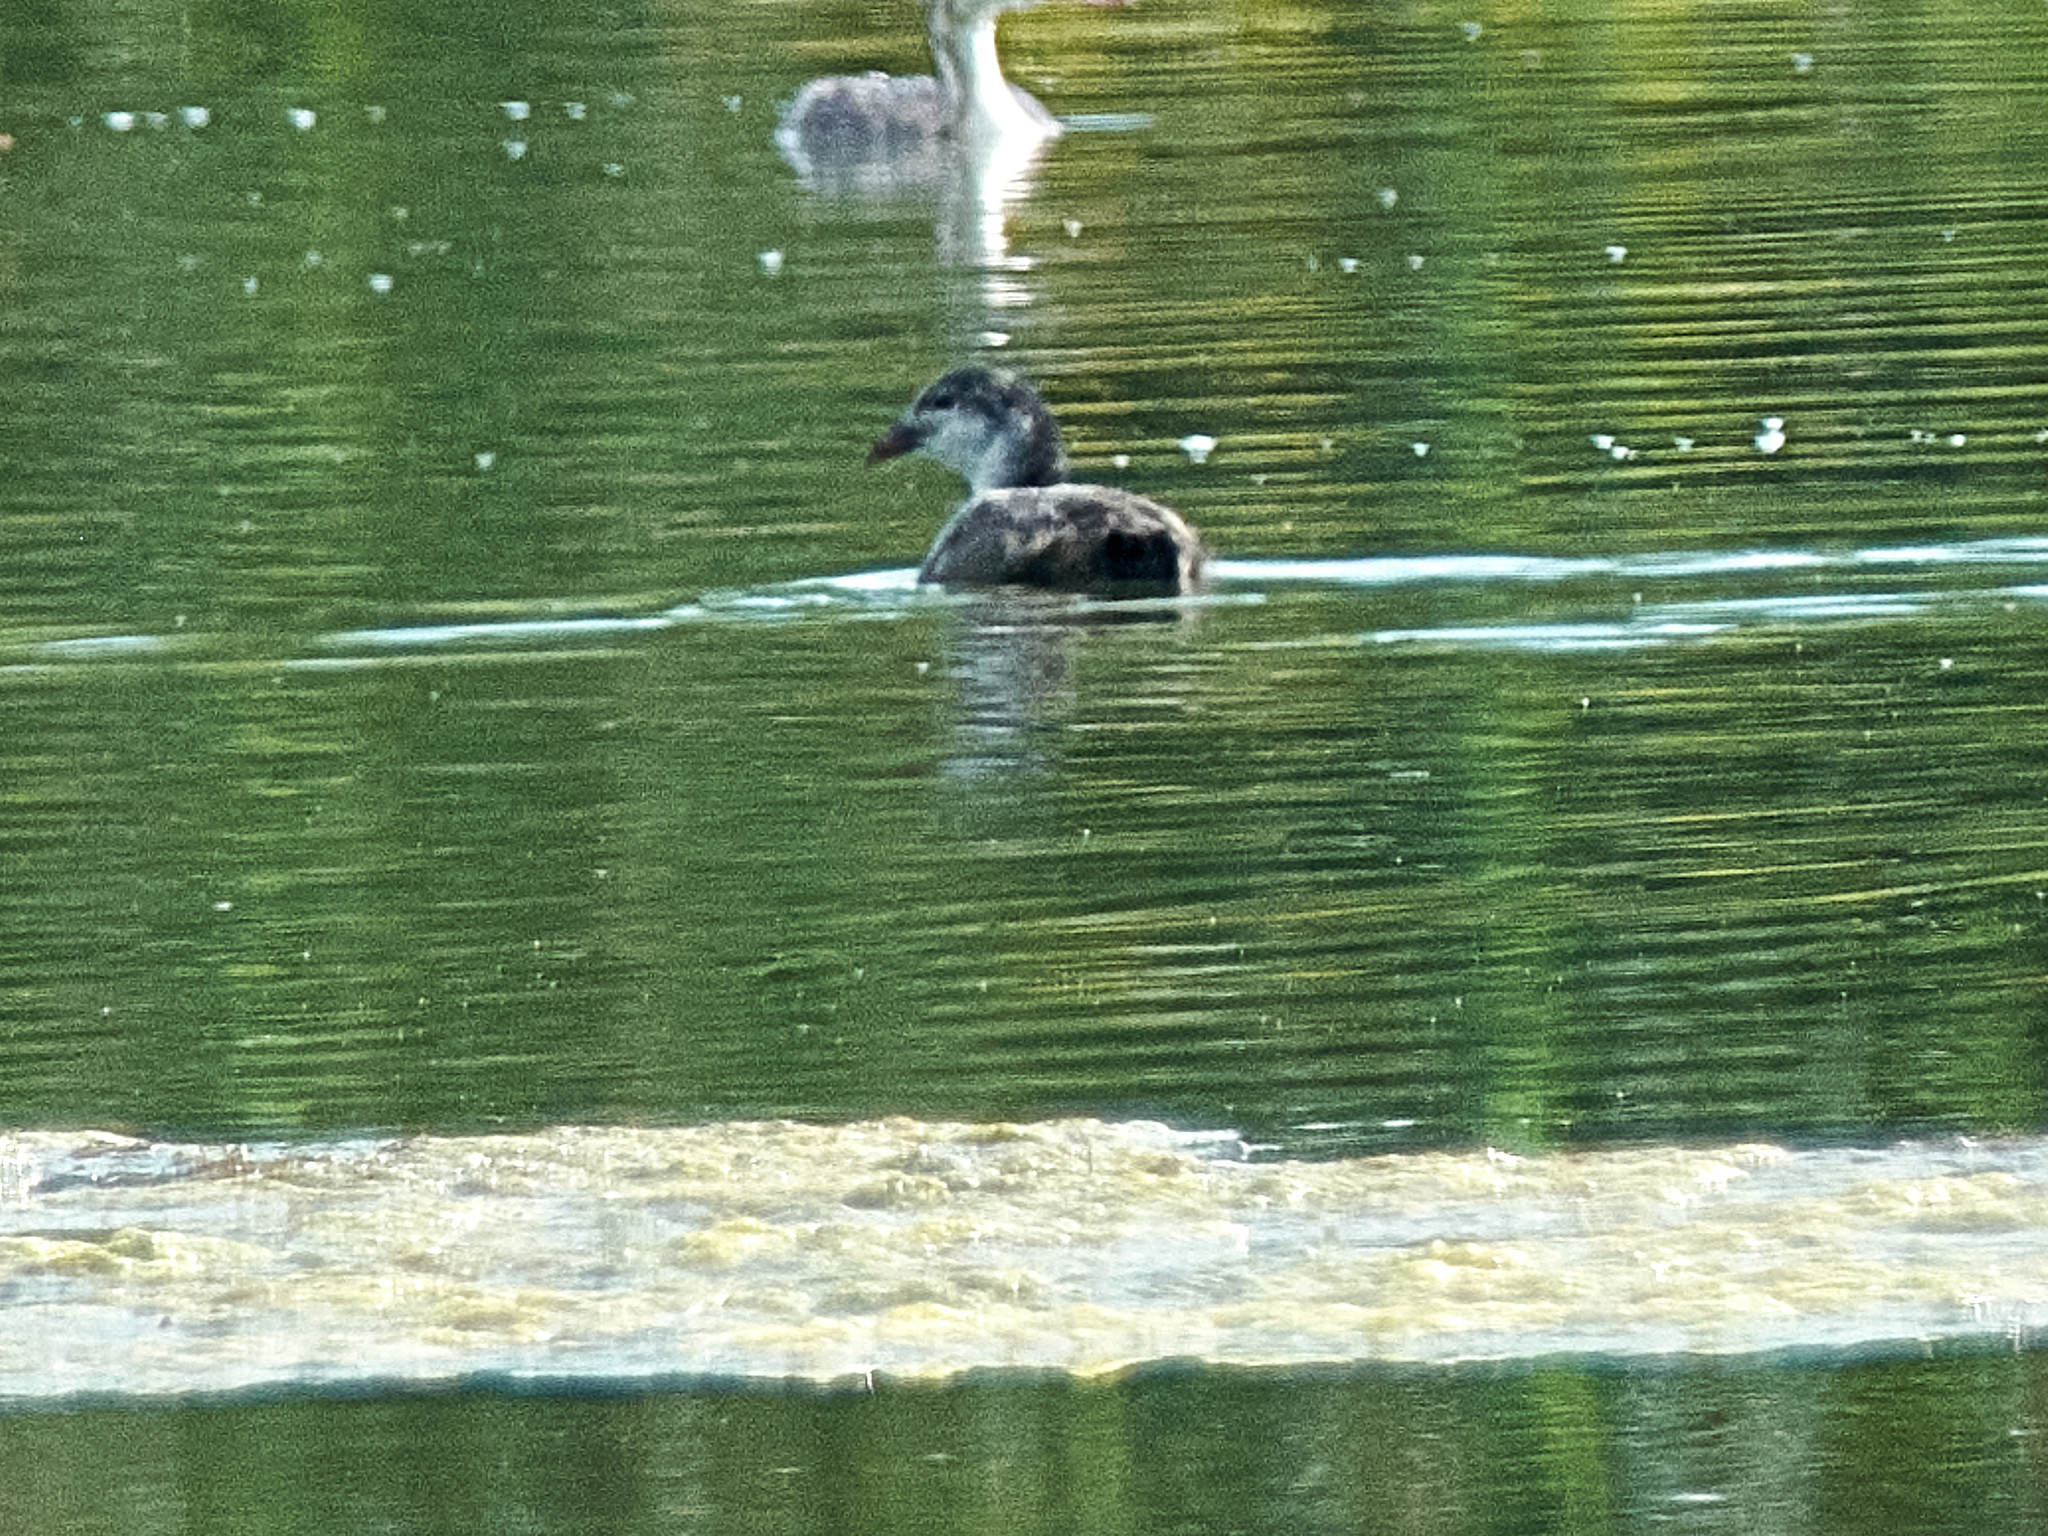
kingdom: Animalia
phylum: Chordata
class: Aves
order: Gruiformes
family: Rallidae
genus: Gallinula
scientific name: Gallinula chloropus
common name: Common moorhen
